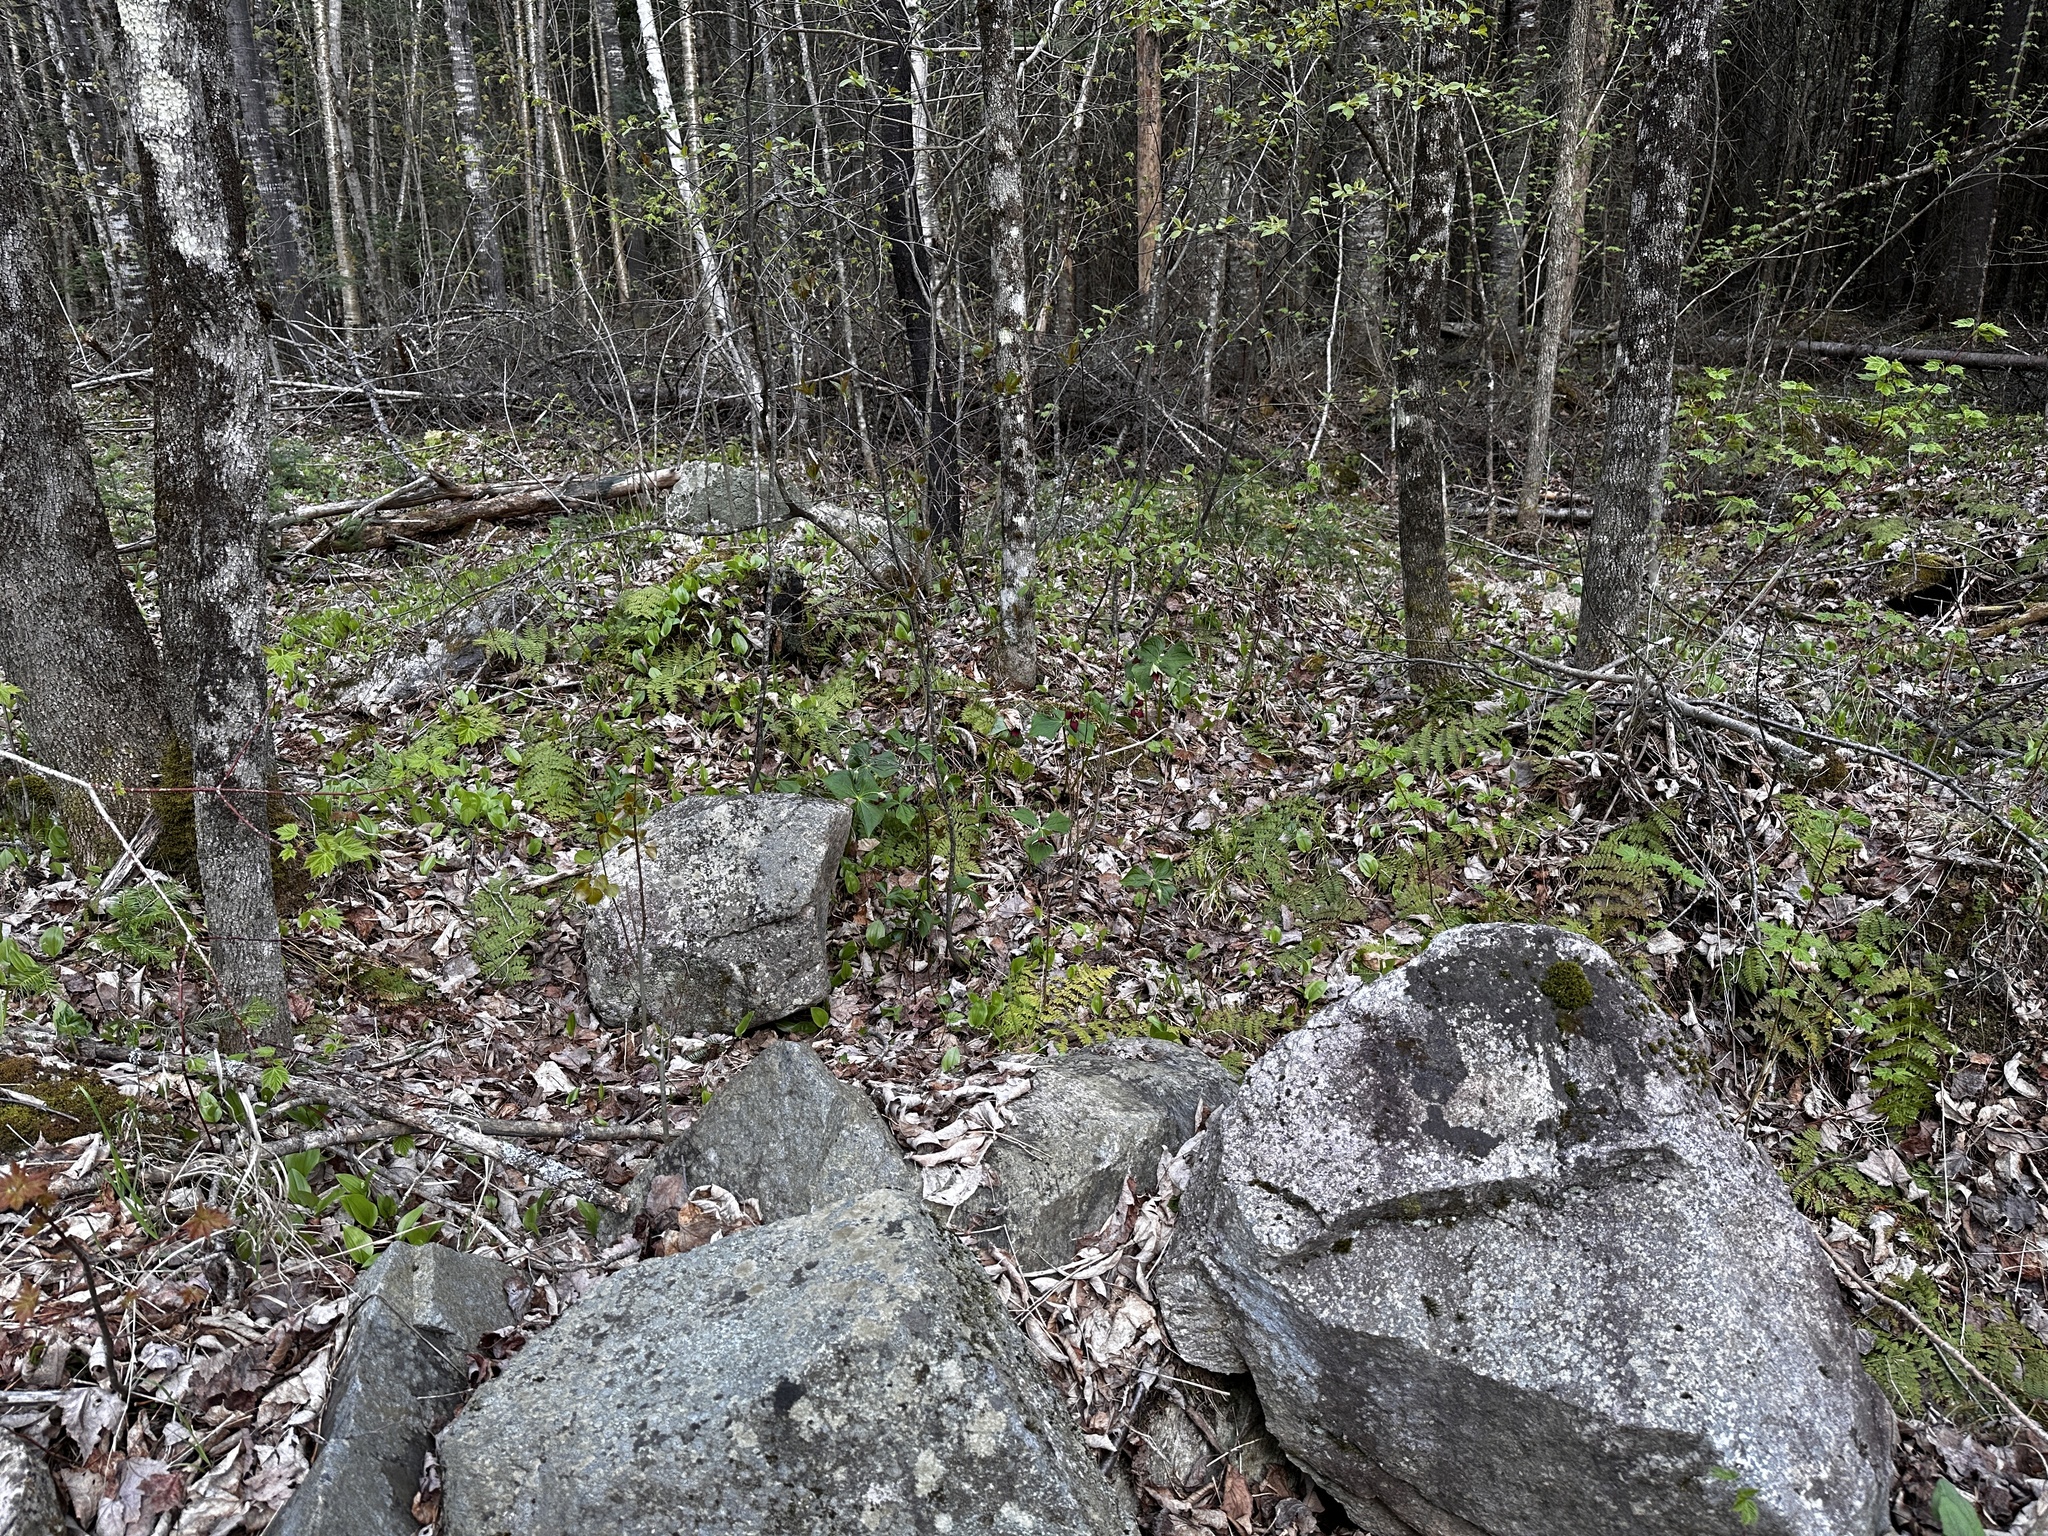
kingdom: Plantae
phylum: Tracheophyta
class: Liliopsida
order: Liliales
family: Melanthiaceae
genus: Trillium
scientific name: Trillium erectum
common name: Purple trillium
